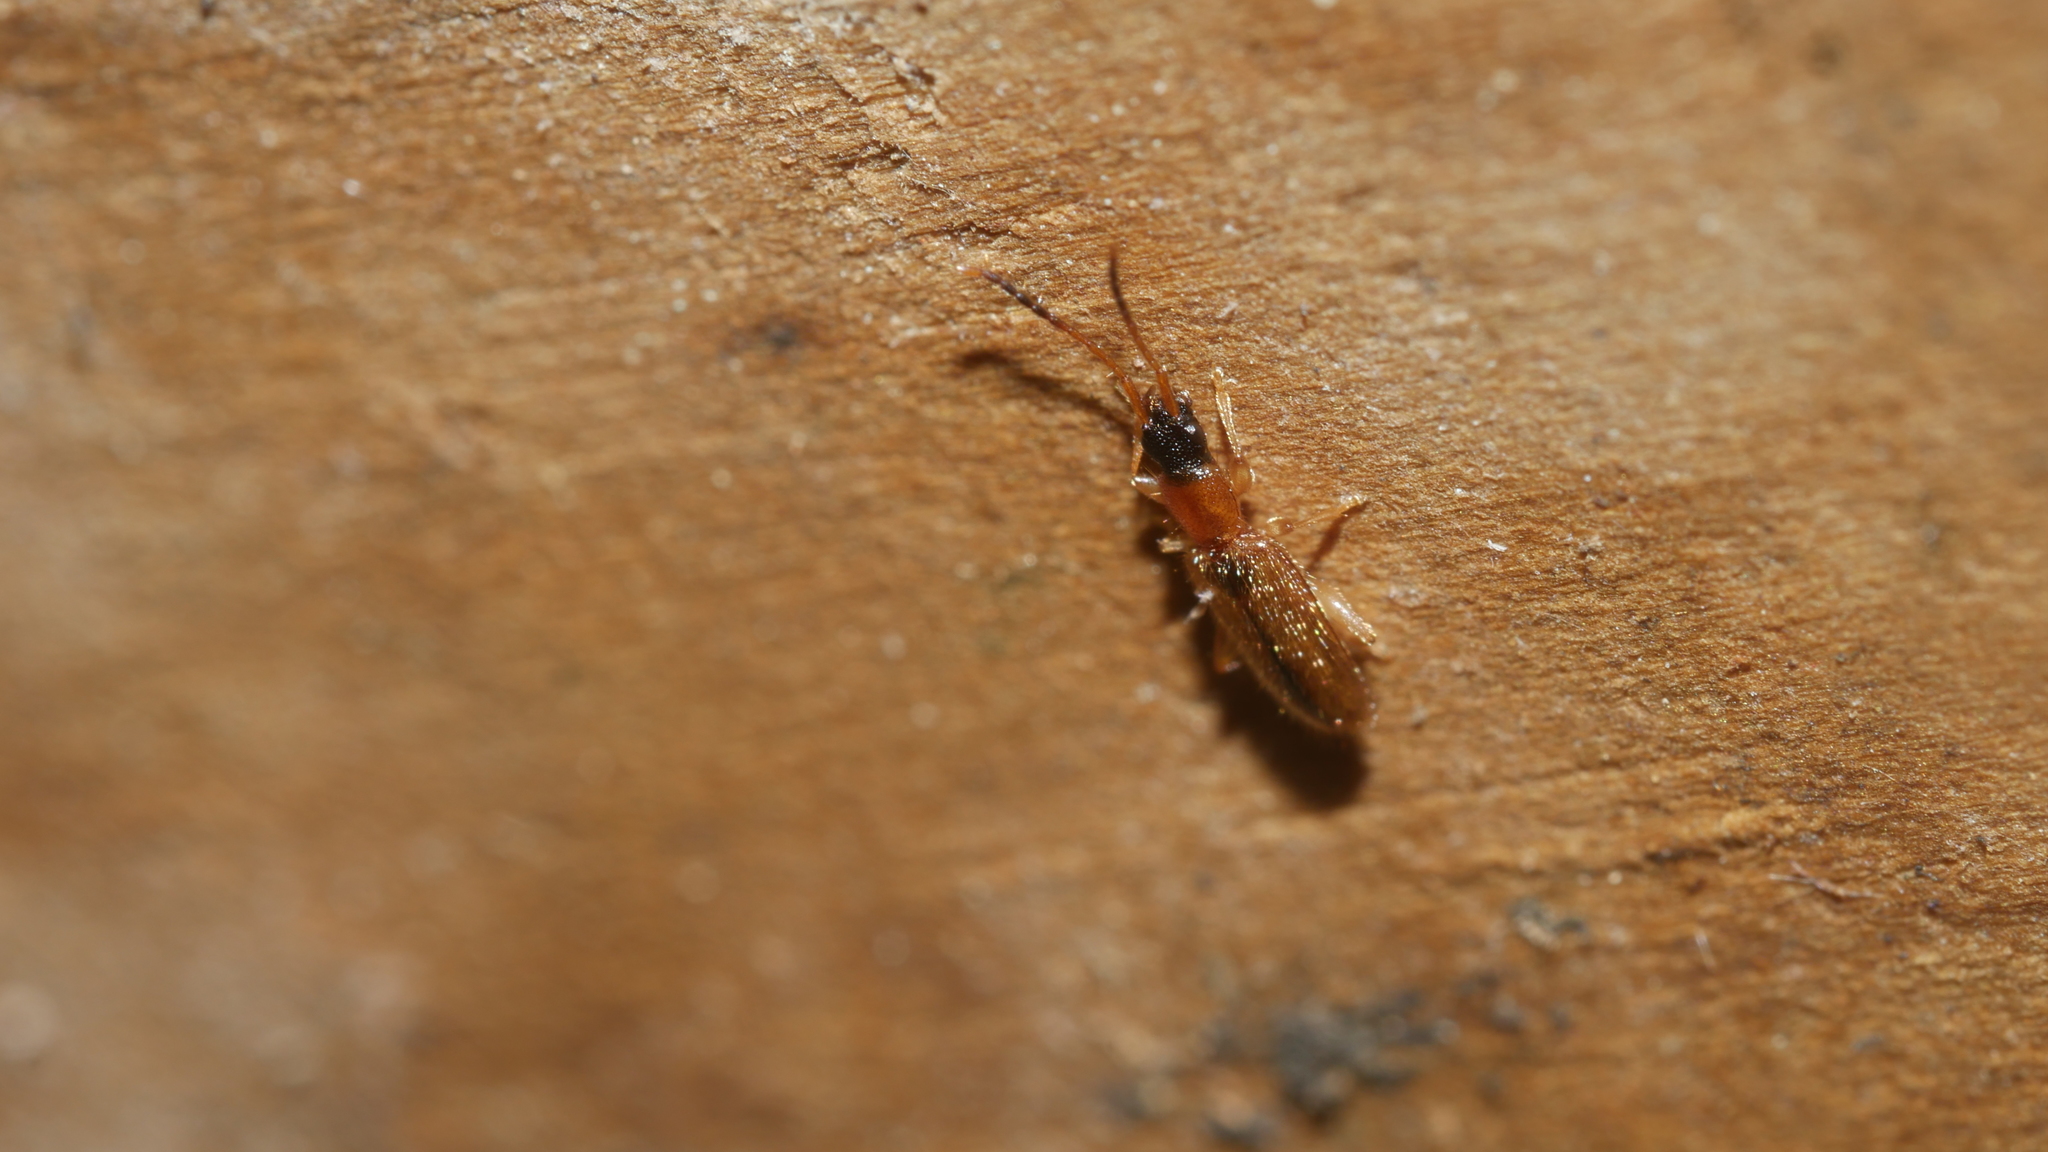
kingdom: Animalia
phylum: Arthropoda
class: Insecta
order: Coleoptera
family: Silvanidae
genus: Telephanus
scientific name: Telephanus velox
